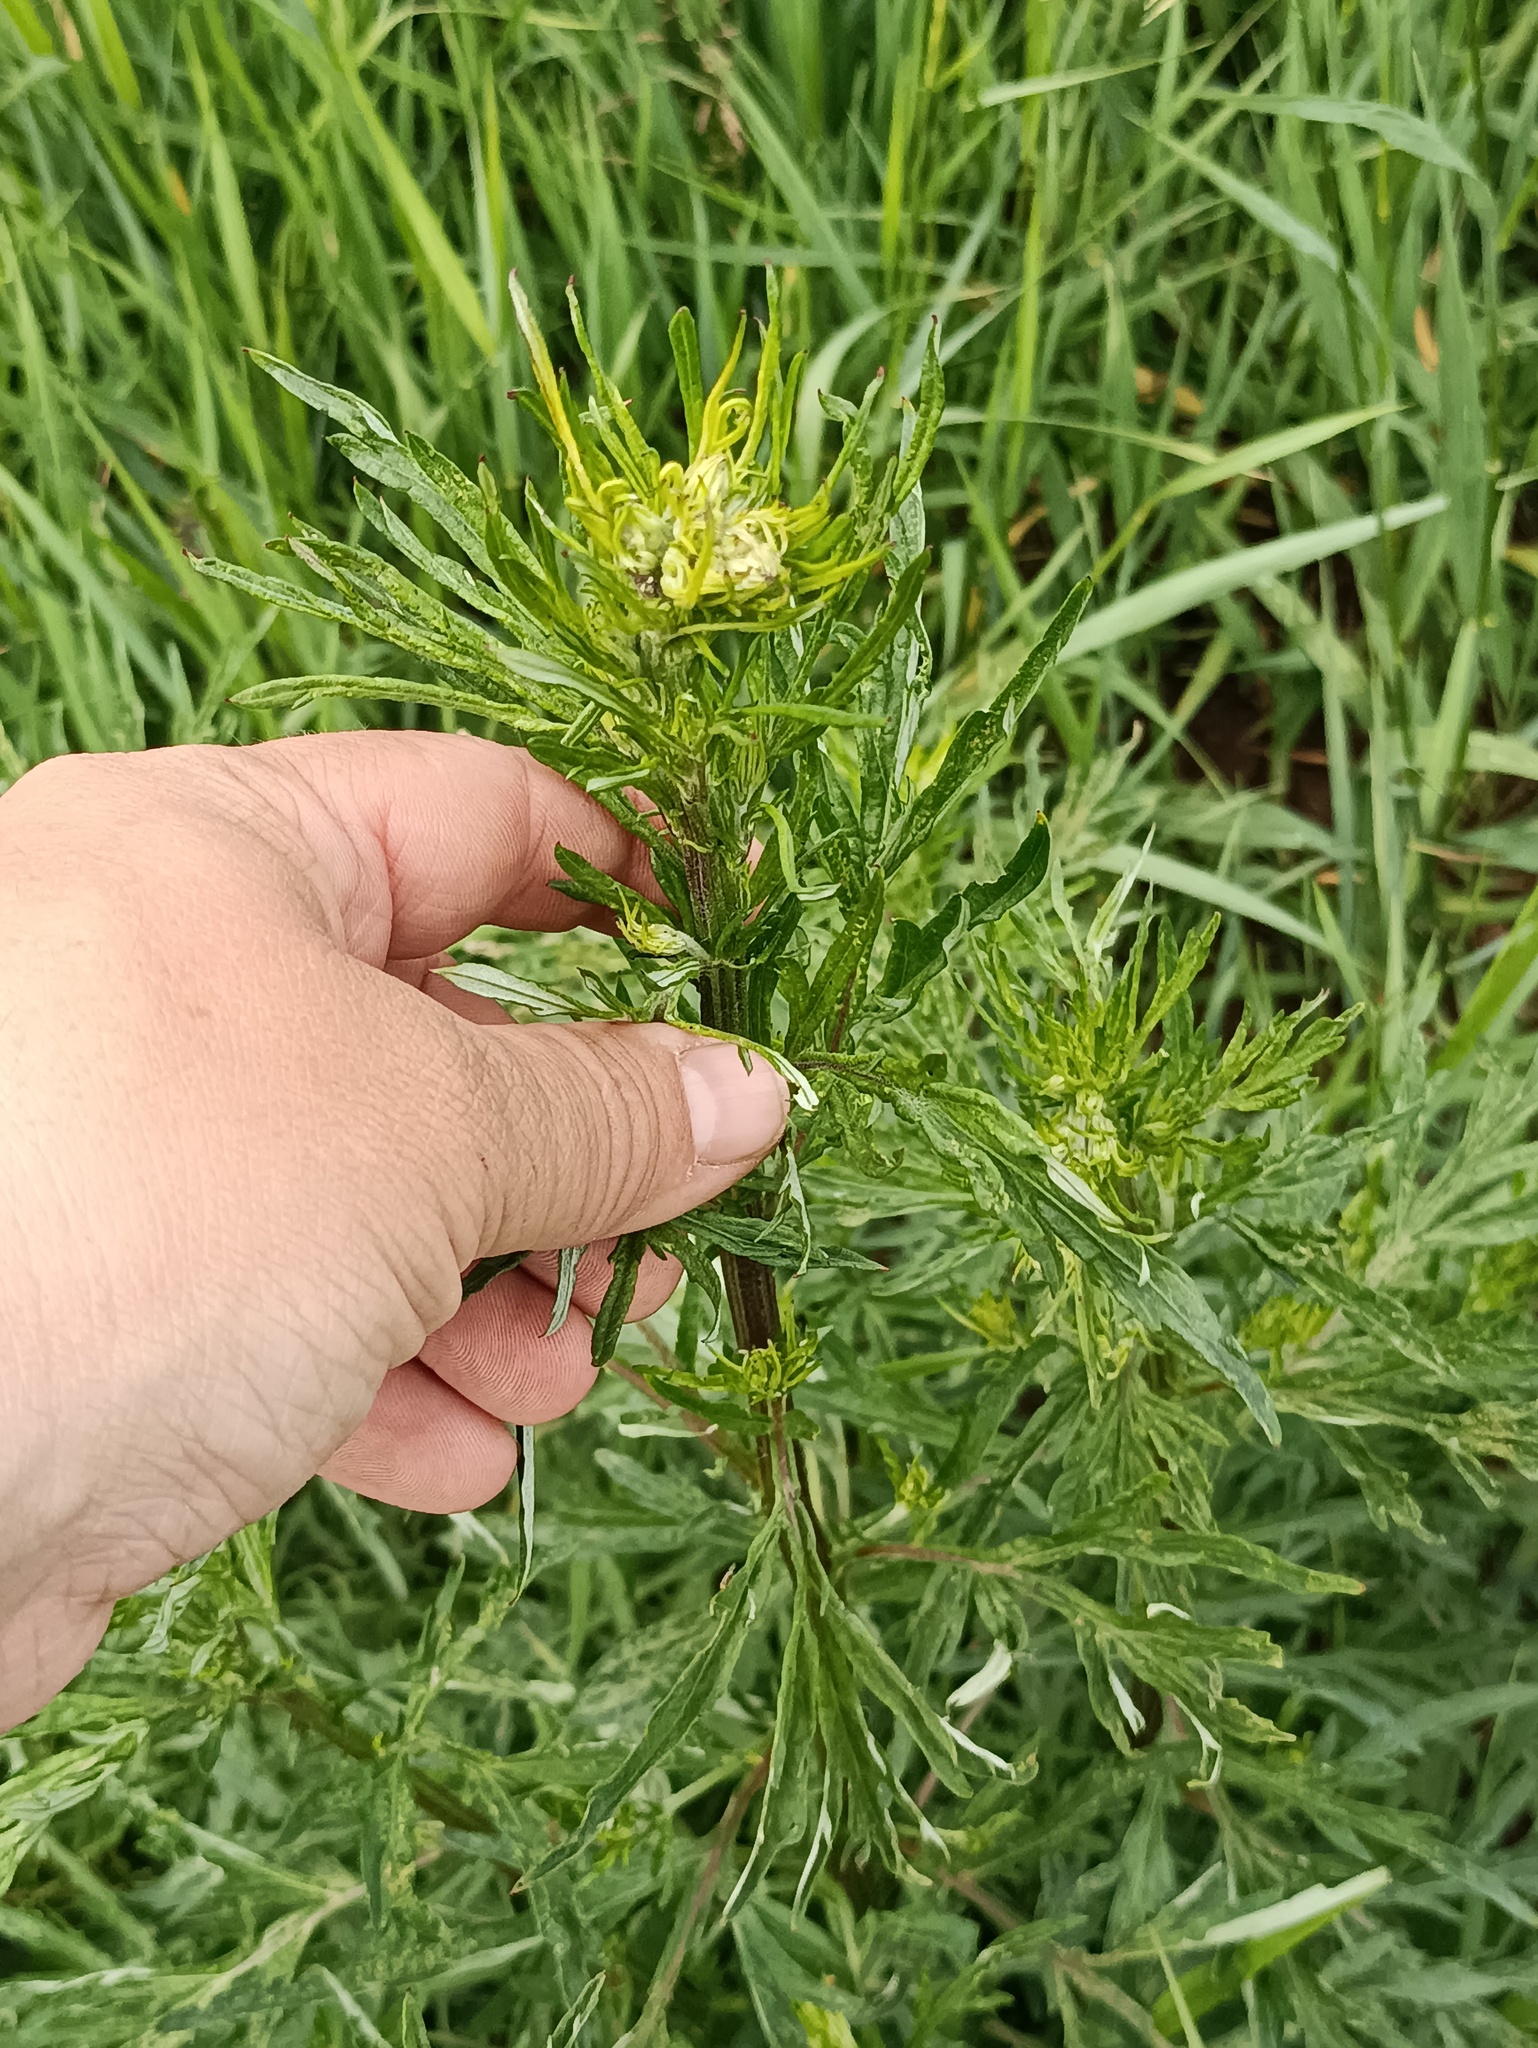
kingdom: Plantae
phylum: Tracheophyta
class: Magnoliopsida
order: Asterales
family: Asteraceae
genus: Artemisia
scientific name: Artemisia vulgaris
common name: Mugwort
